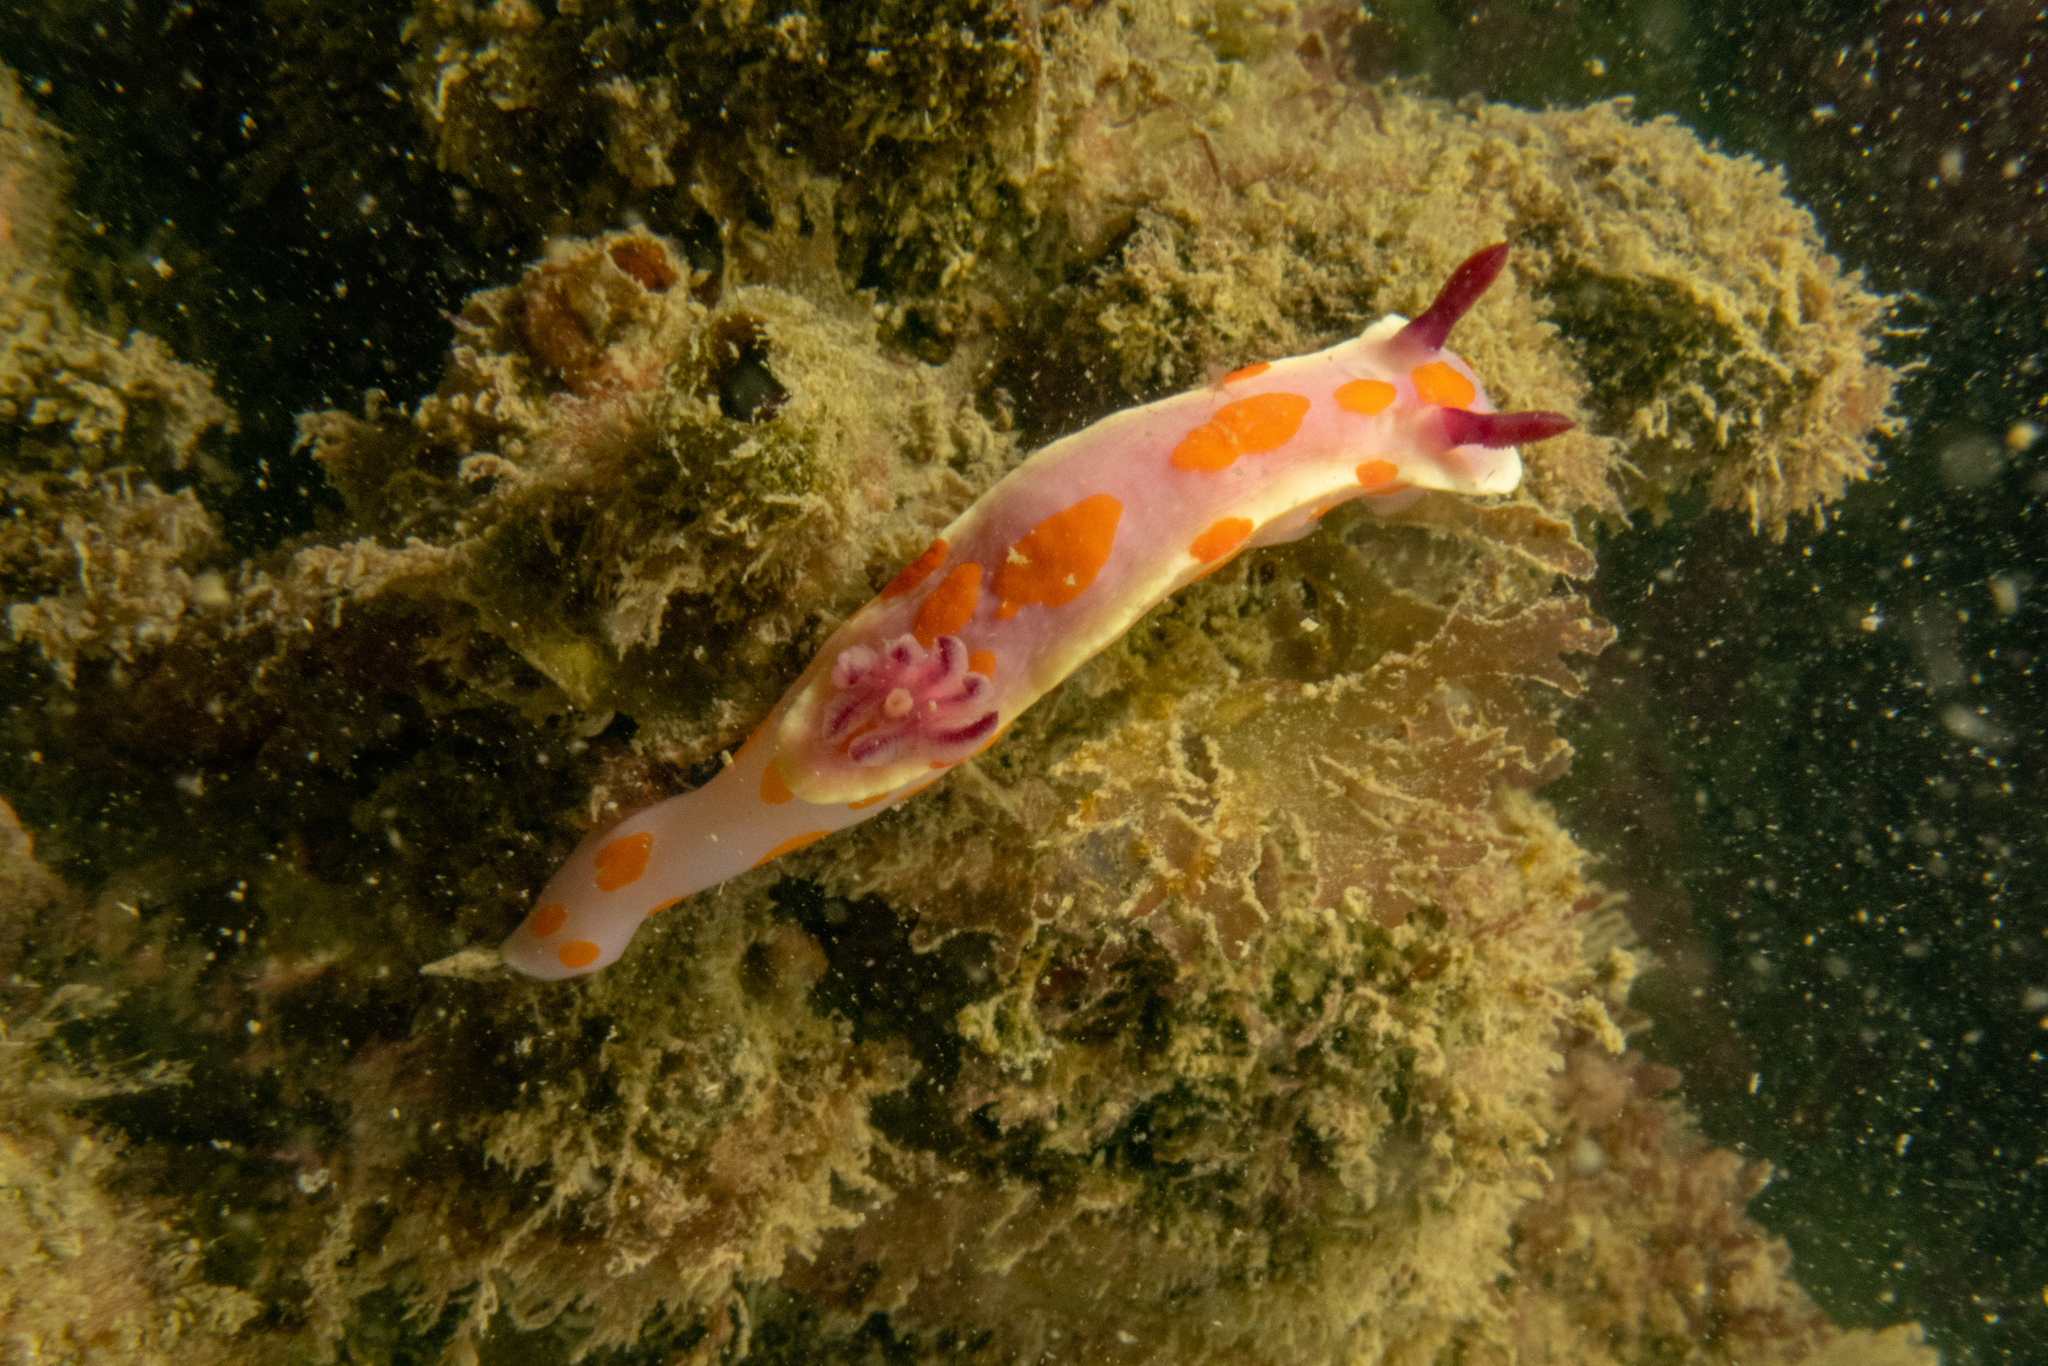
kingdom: Animalia
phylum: Mollusca
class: Gastropoda
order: Nudibranchia
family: Chromodorididae
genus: Ceratosoma
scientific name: Ceratosoma amoenum
